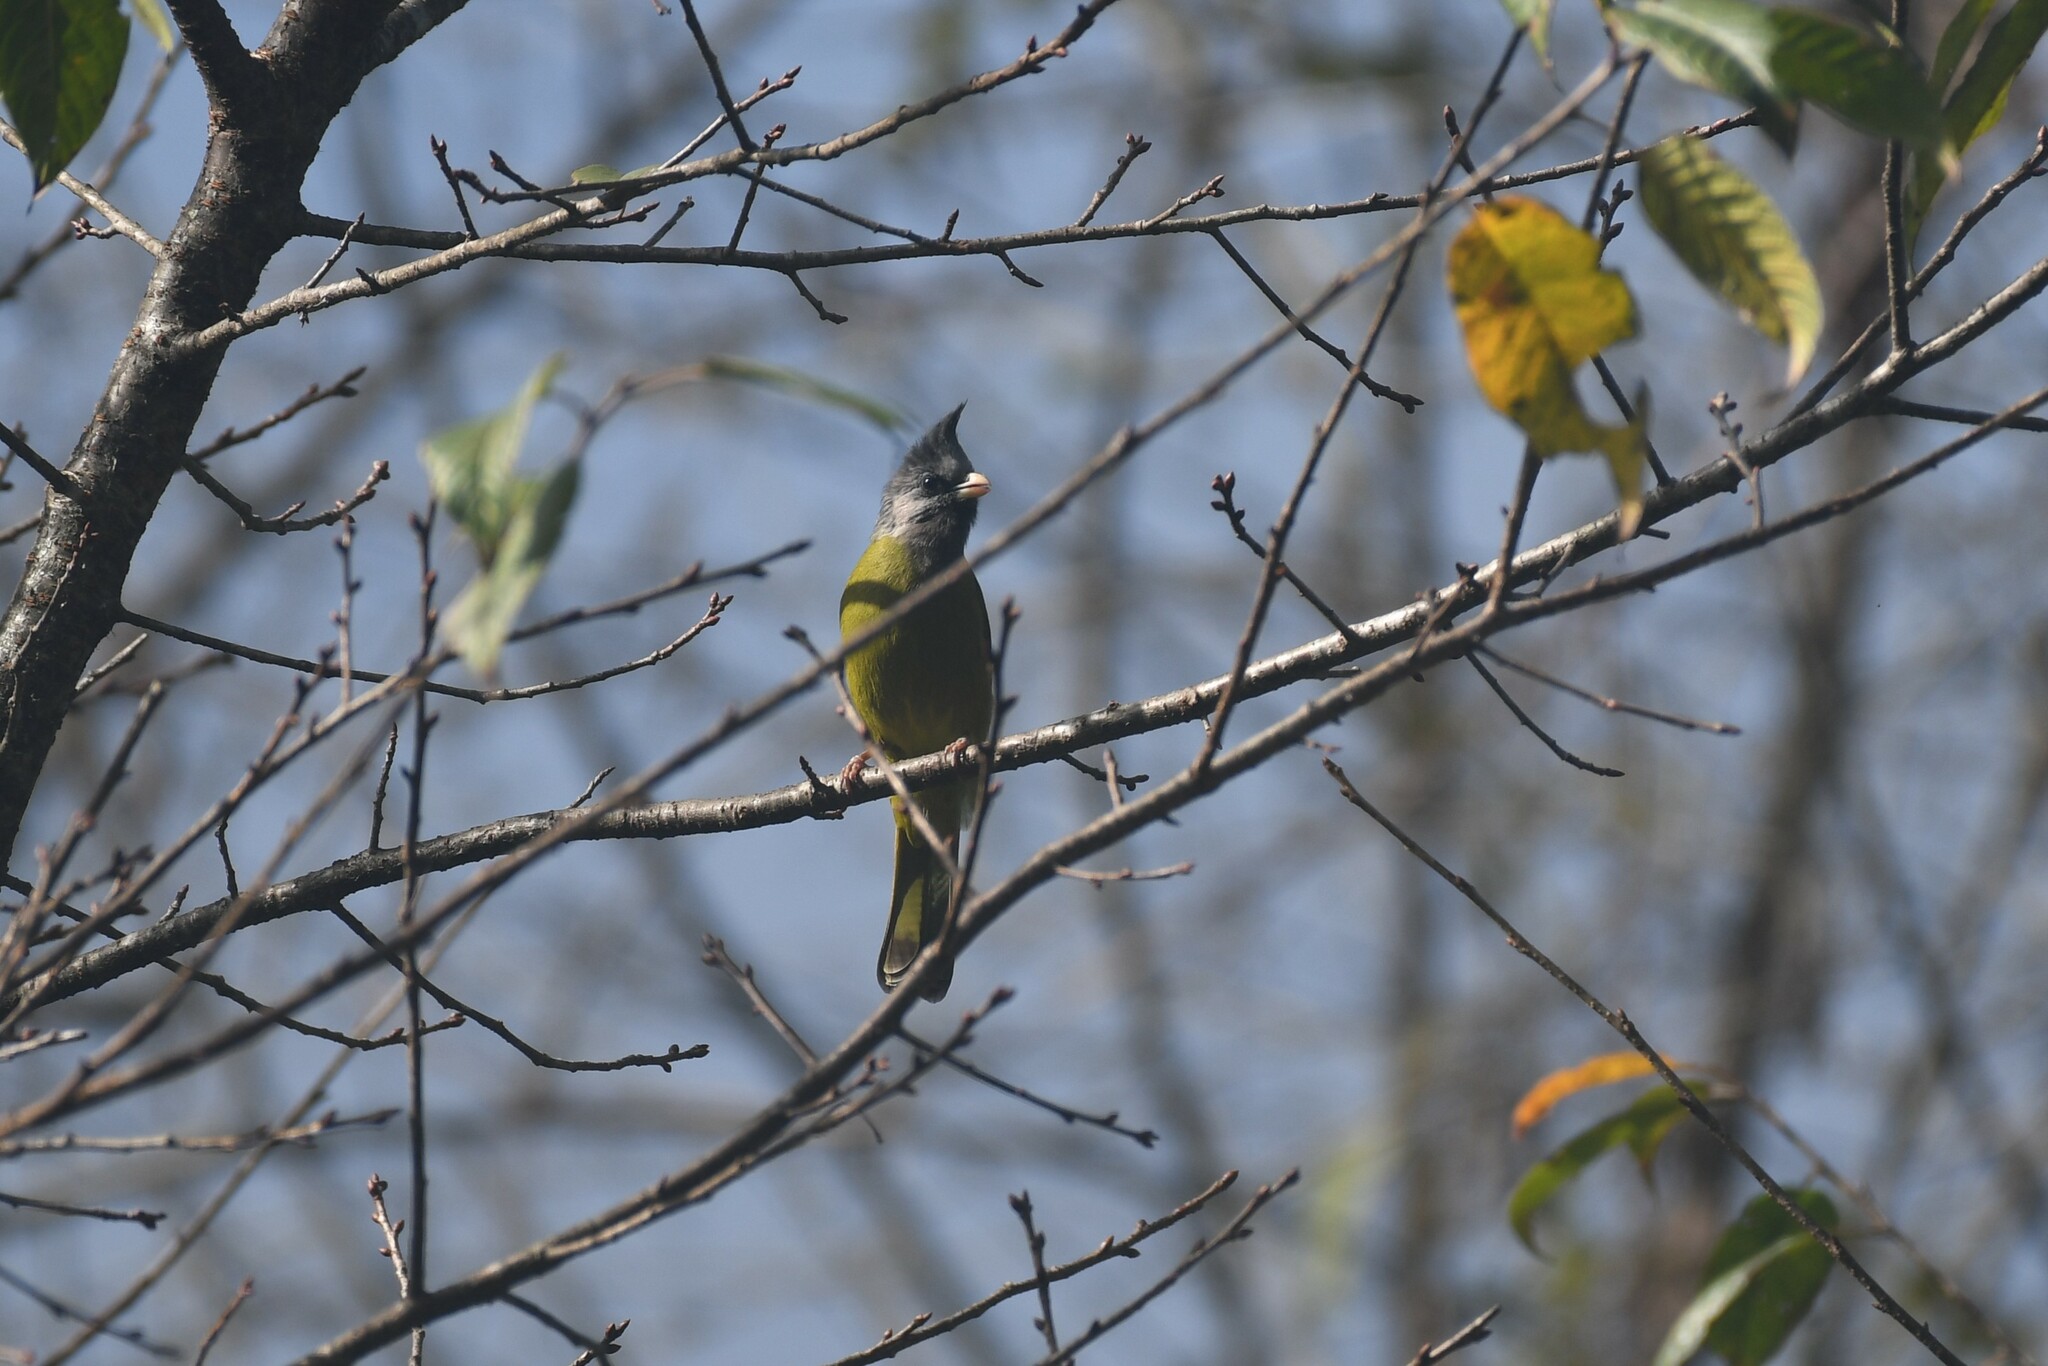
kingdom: Animalia
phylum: Chordata
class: Aves
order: Passeriformes
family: Pycnonotidae
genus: Spizixos
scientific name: Spizixos canifrons
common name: Crested finchbill
